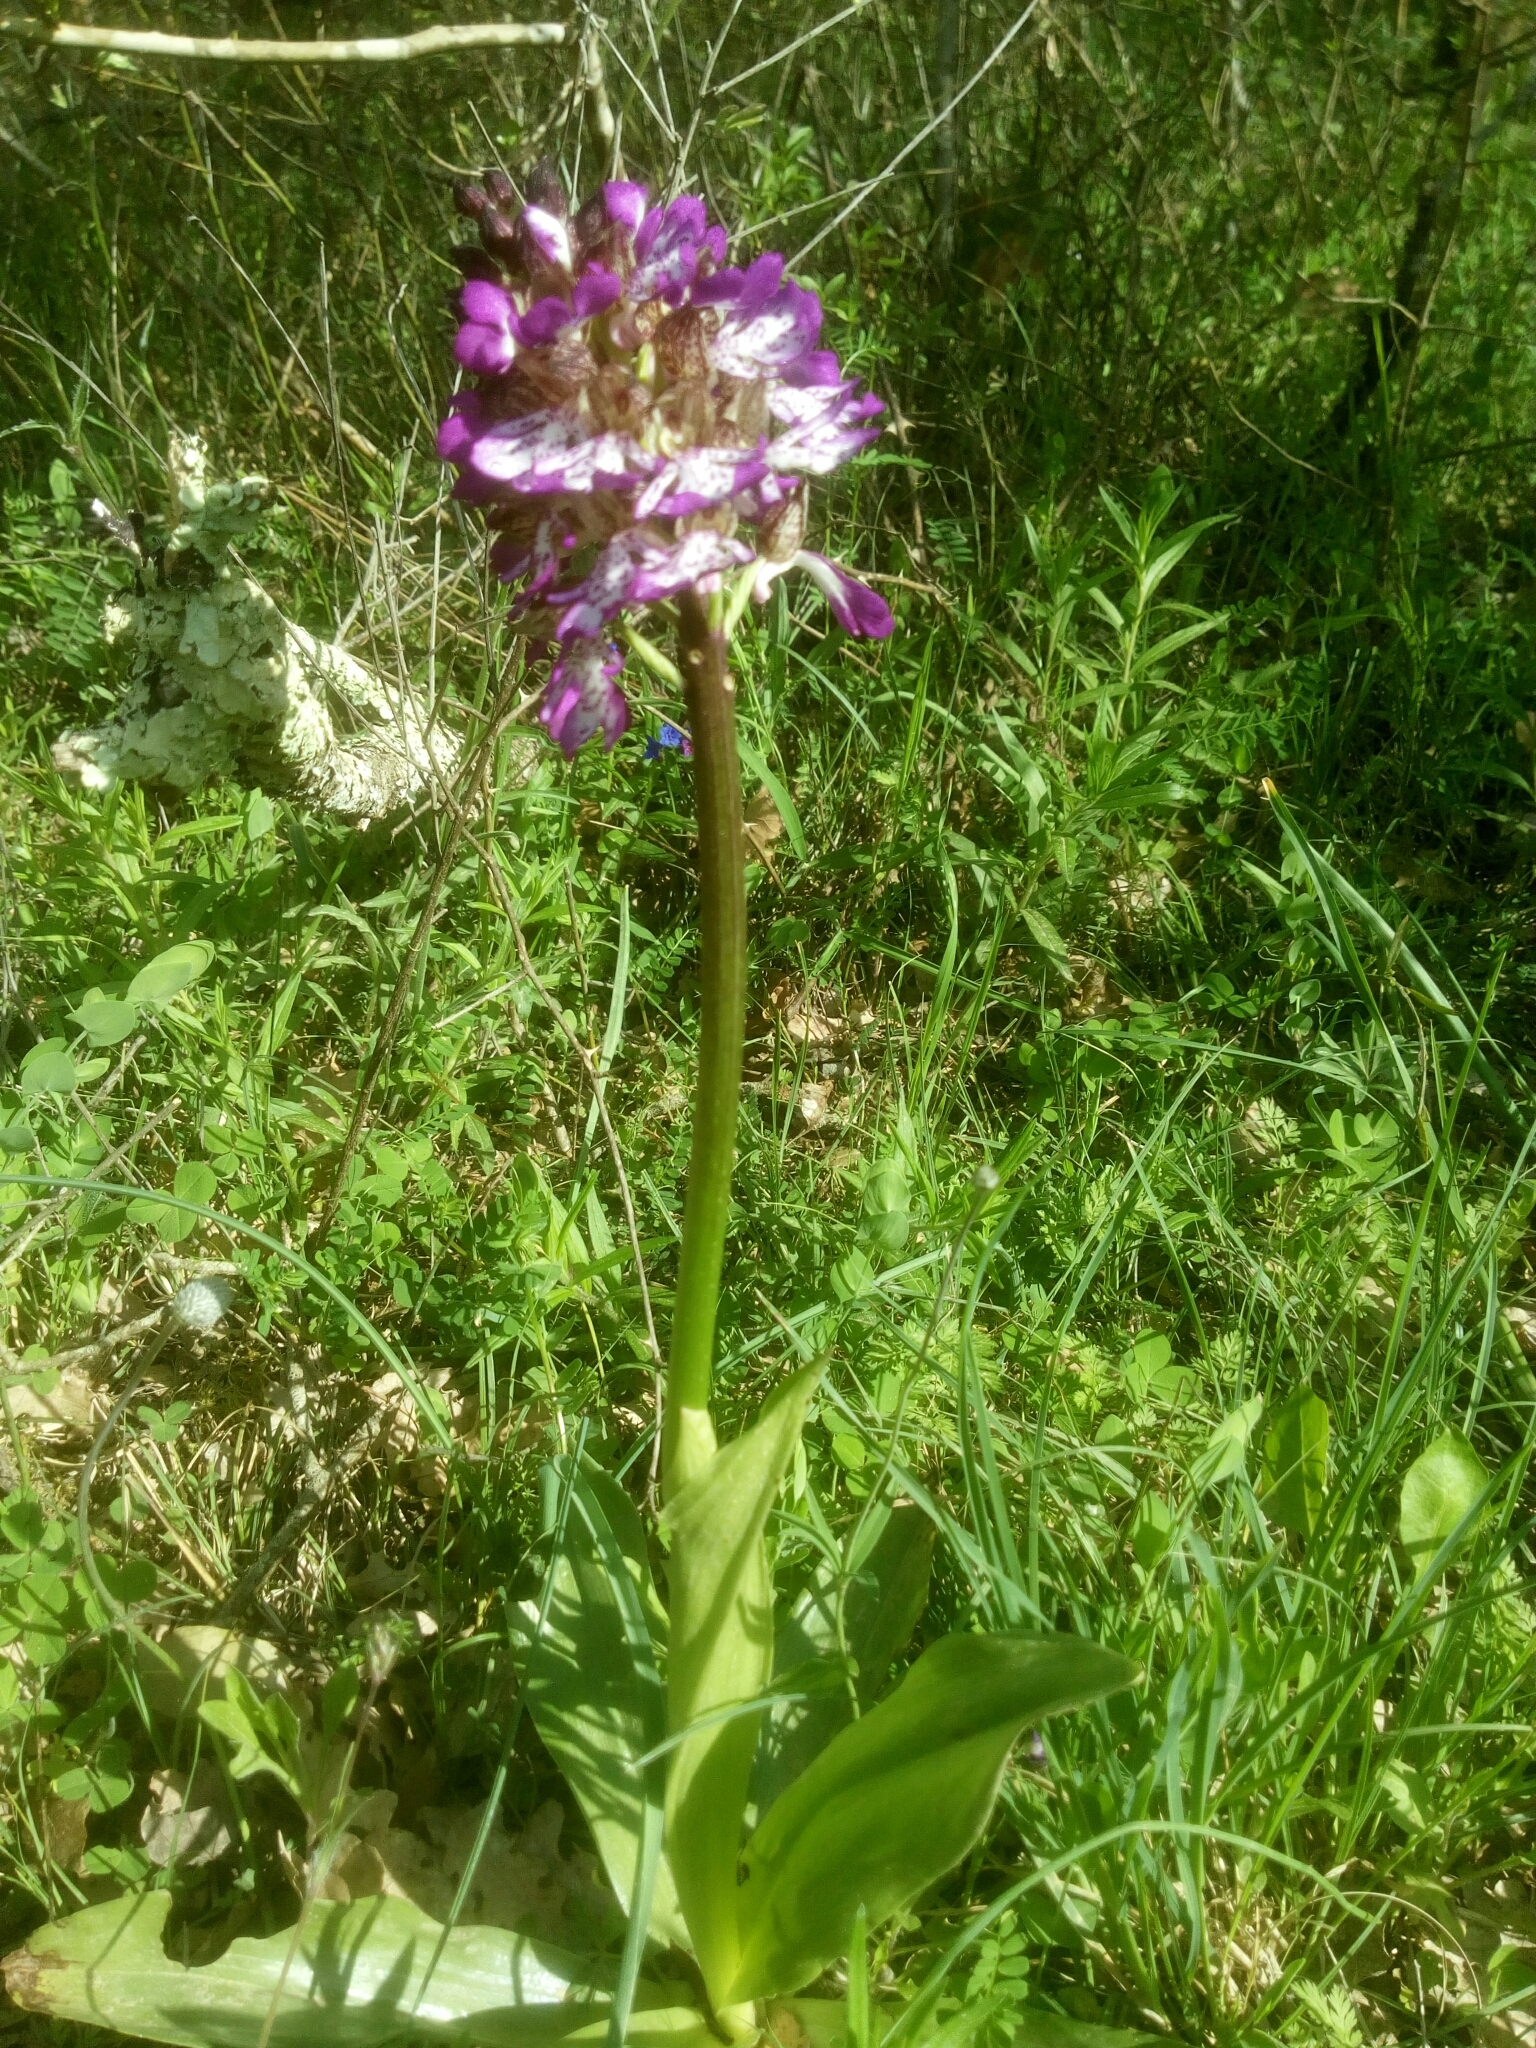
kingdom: Plantae
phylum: Tracheophyta
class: Liliopsida
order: Asparagales
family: Orchidaceae
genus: Orchis
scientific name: Orchis purpurea
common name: Lady orchid
